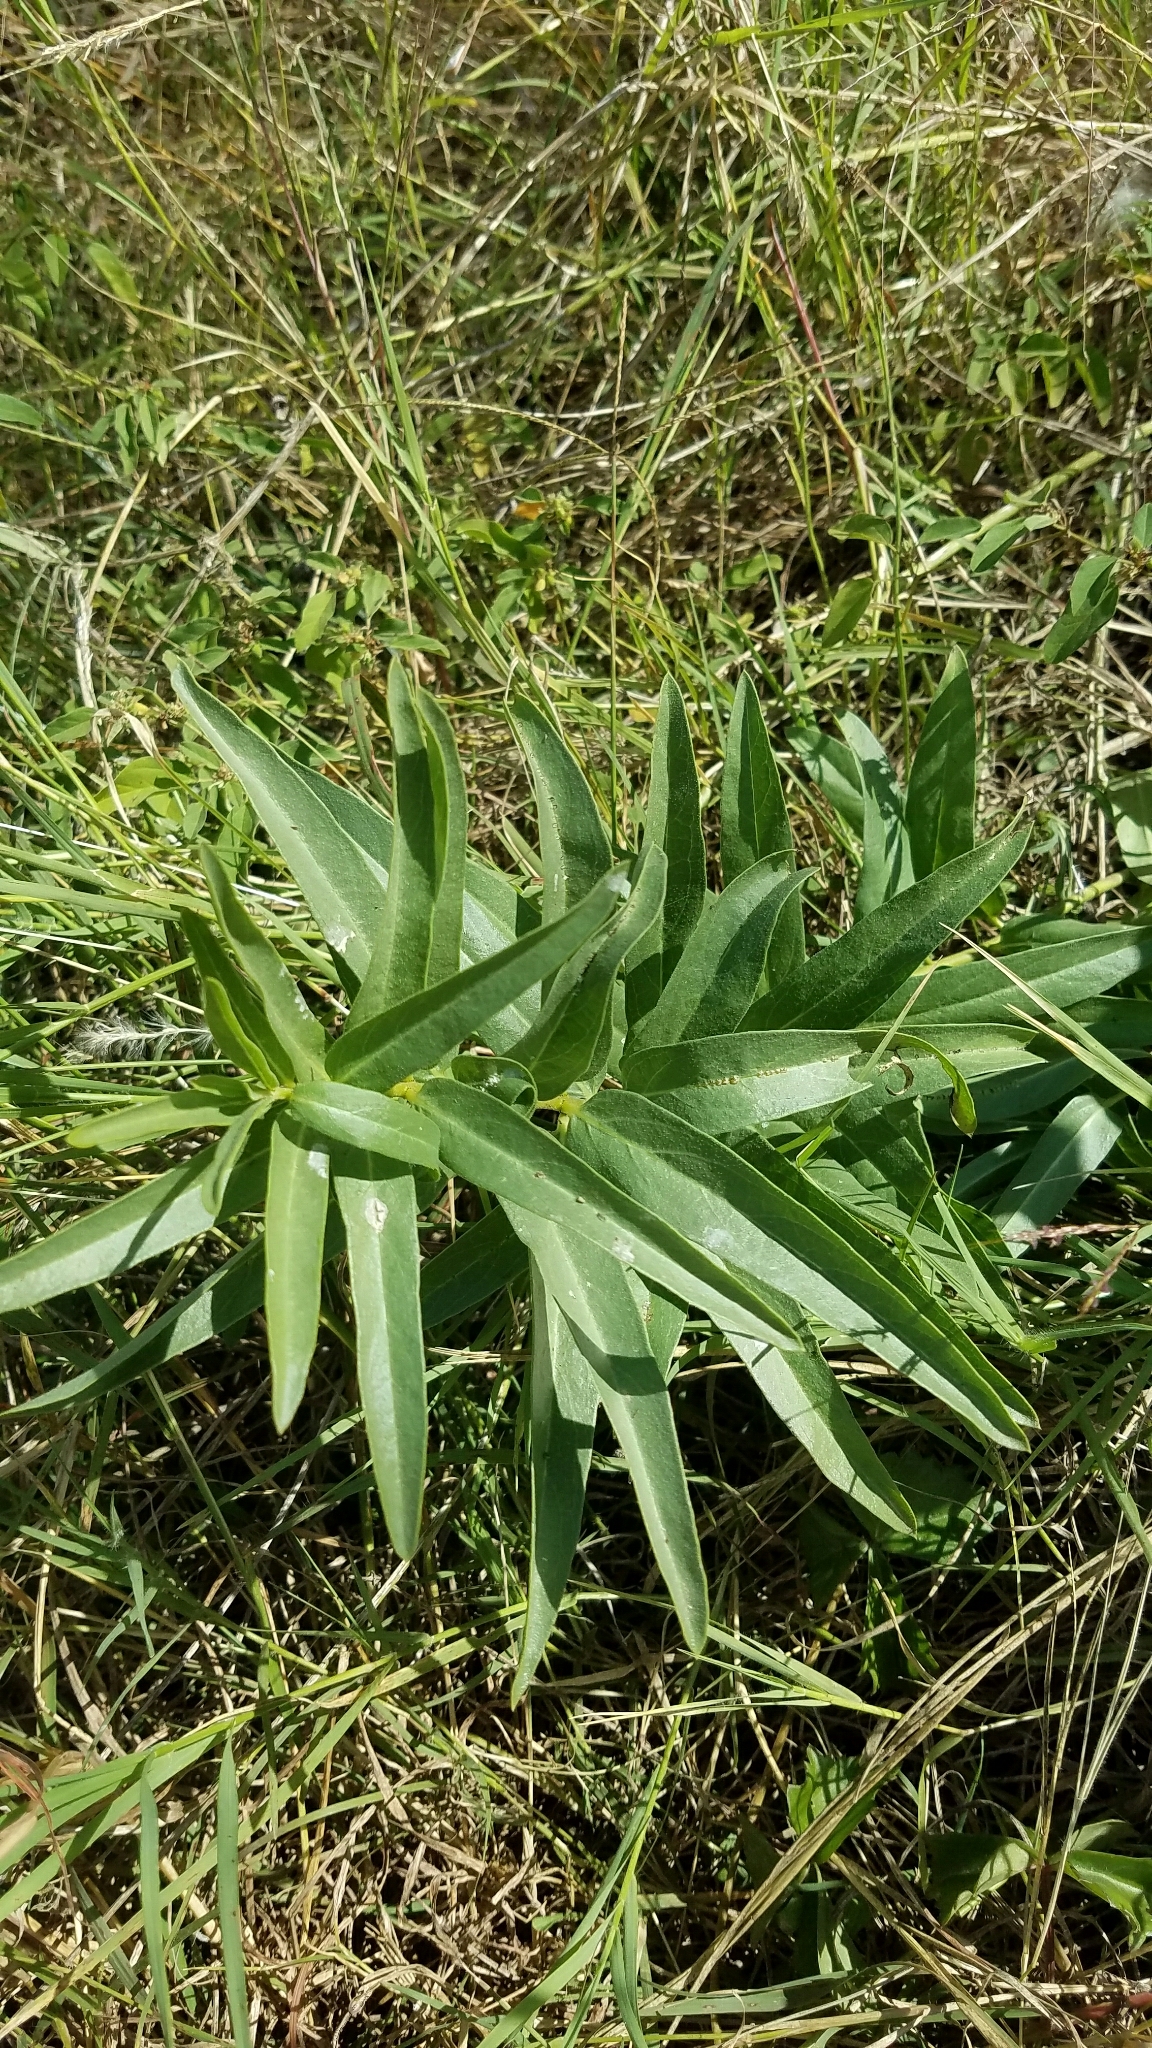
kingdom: Plantae
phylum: Tracheophyta
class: Magnoliopsida
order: Gentianales
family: Apocynaceae
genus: Asclepias
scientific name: Asclepias asperula
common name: Antelope horns
